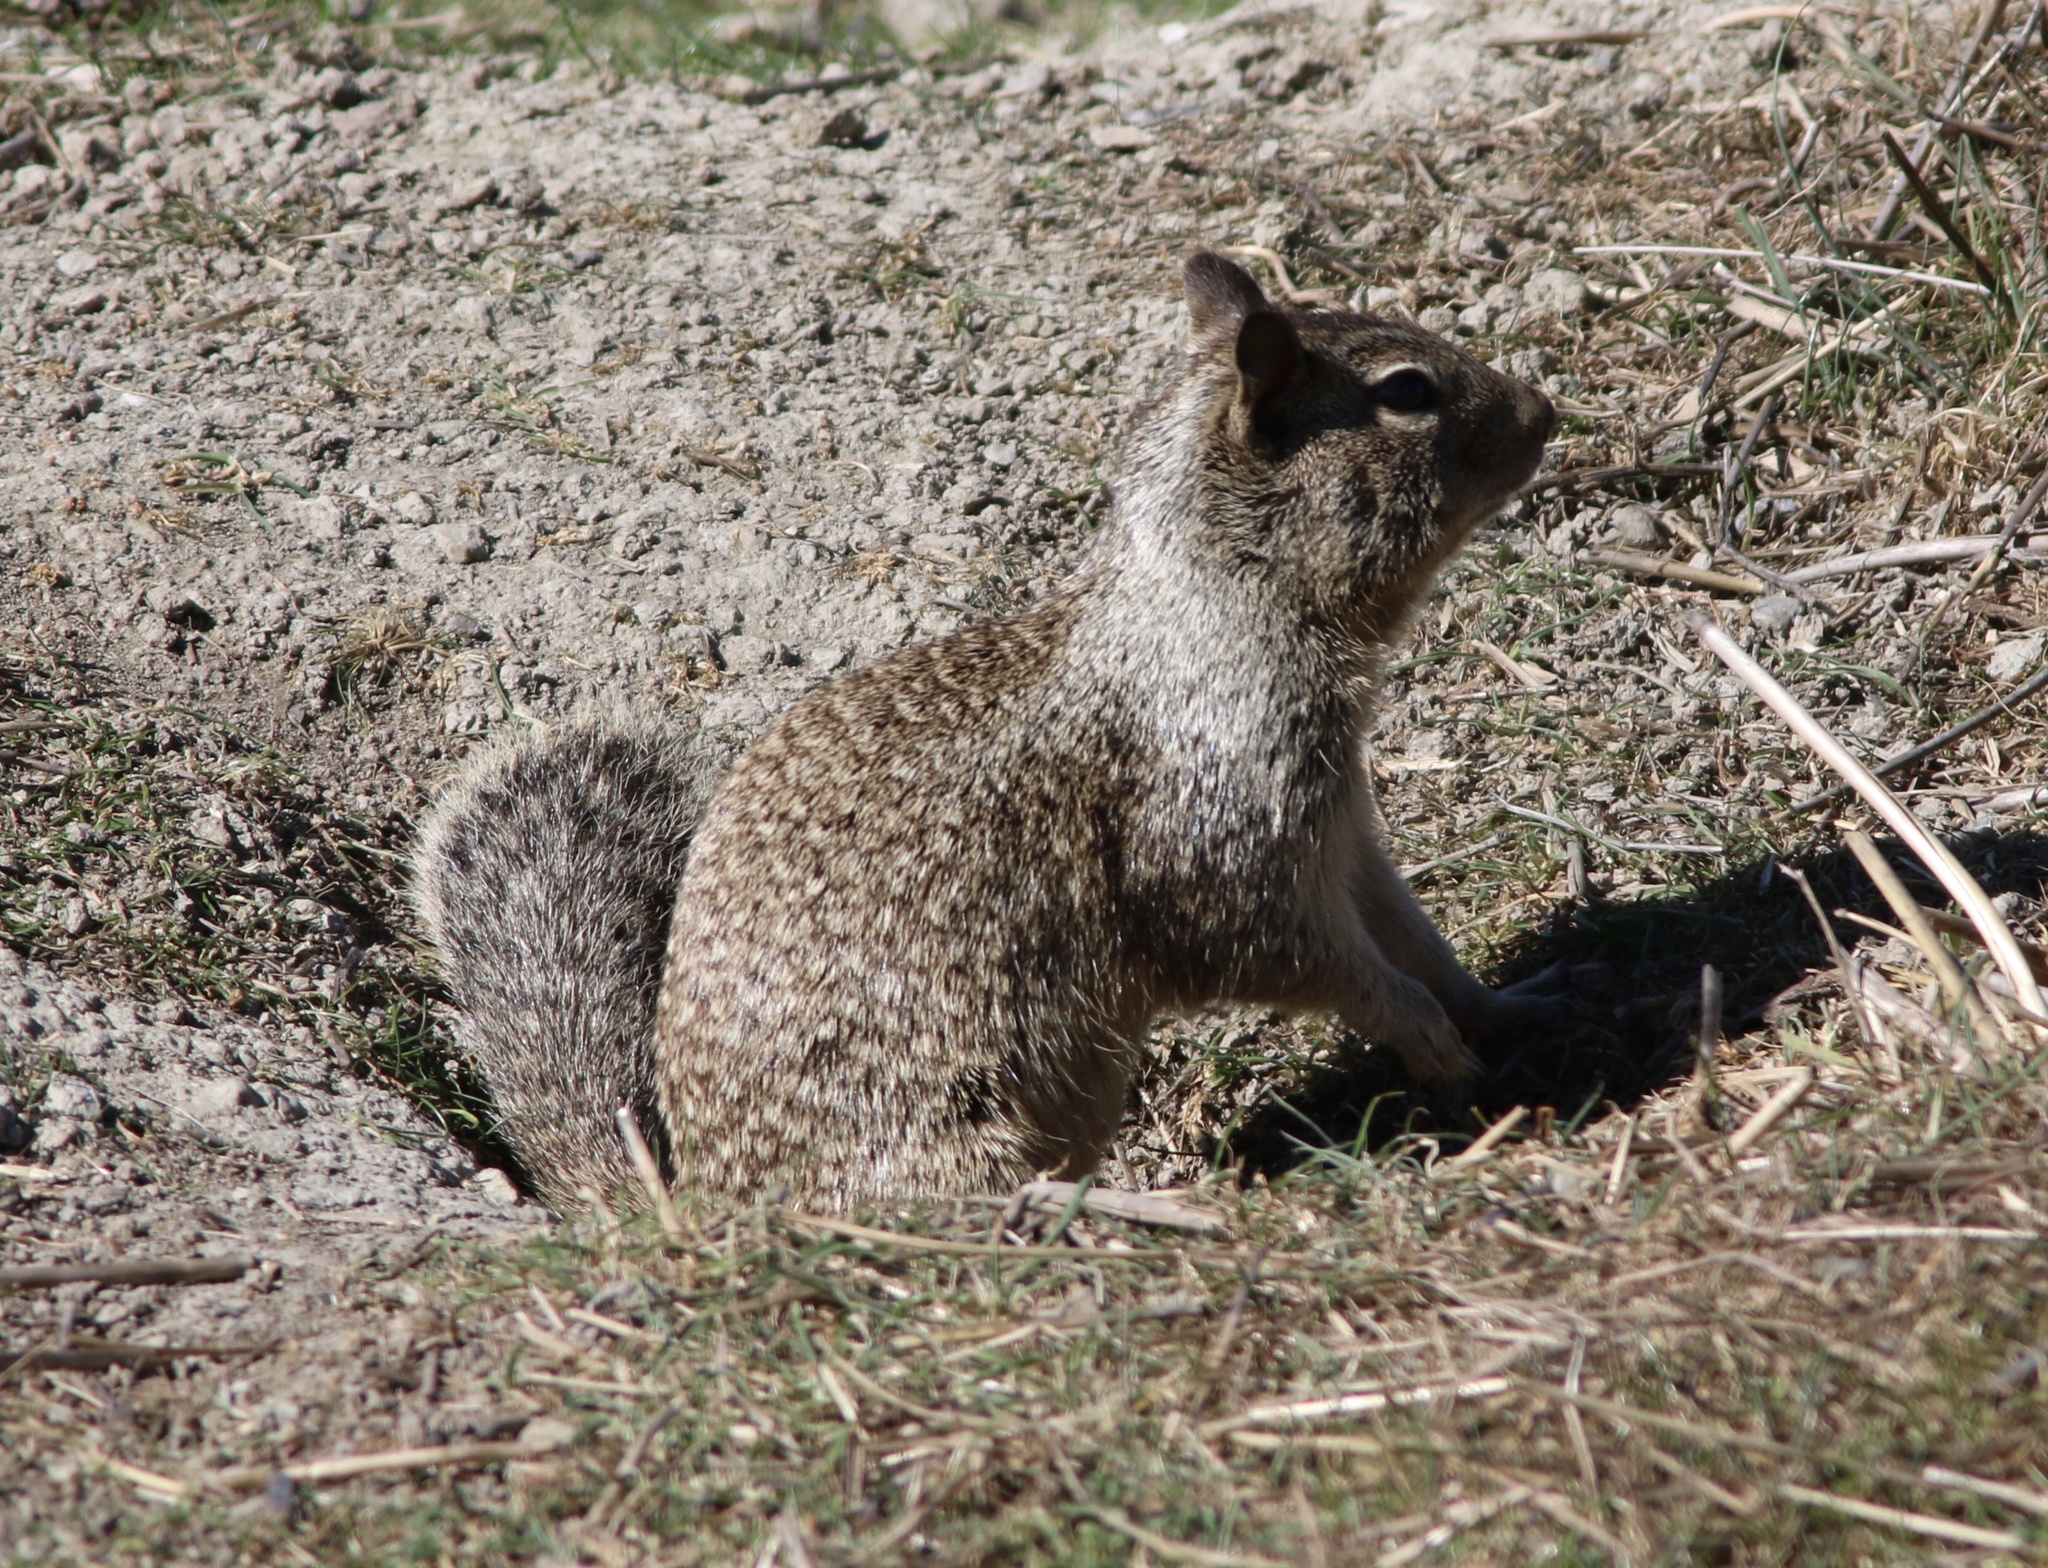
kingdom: Animalia
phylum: Chordata
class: Mammalia
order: Rodentia
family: Sciuridae
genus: Otospermophilus
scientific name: Otospermophilus beecheyi
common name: California ground squirrel
